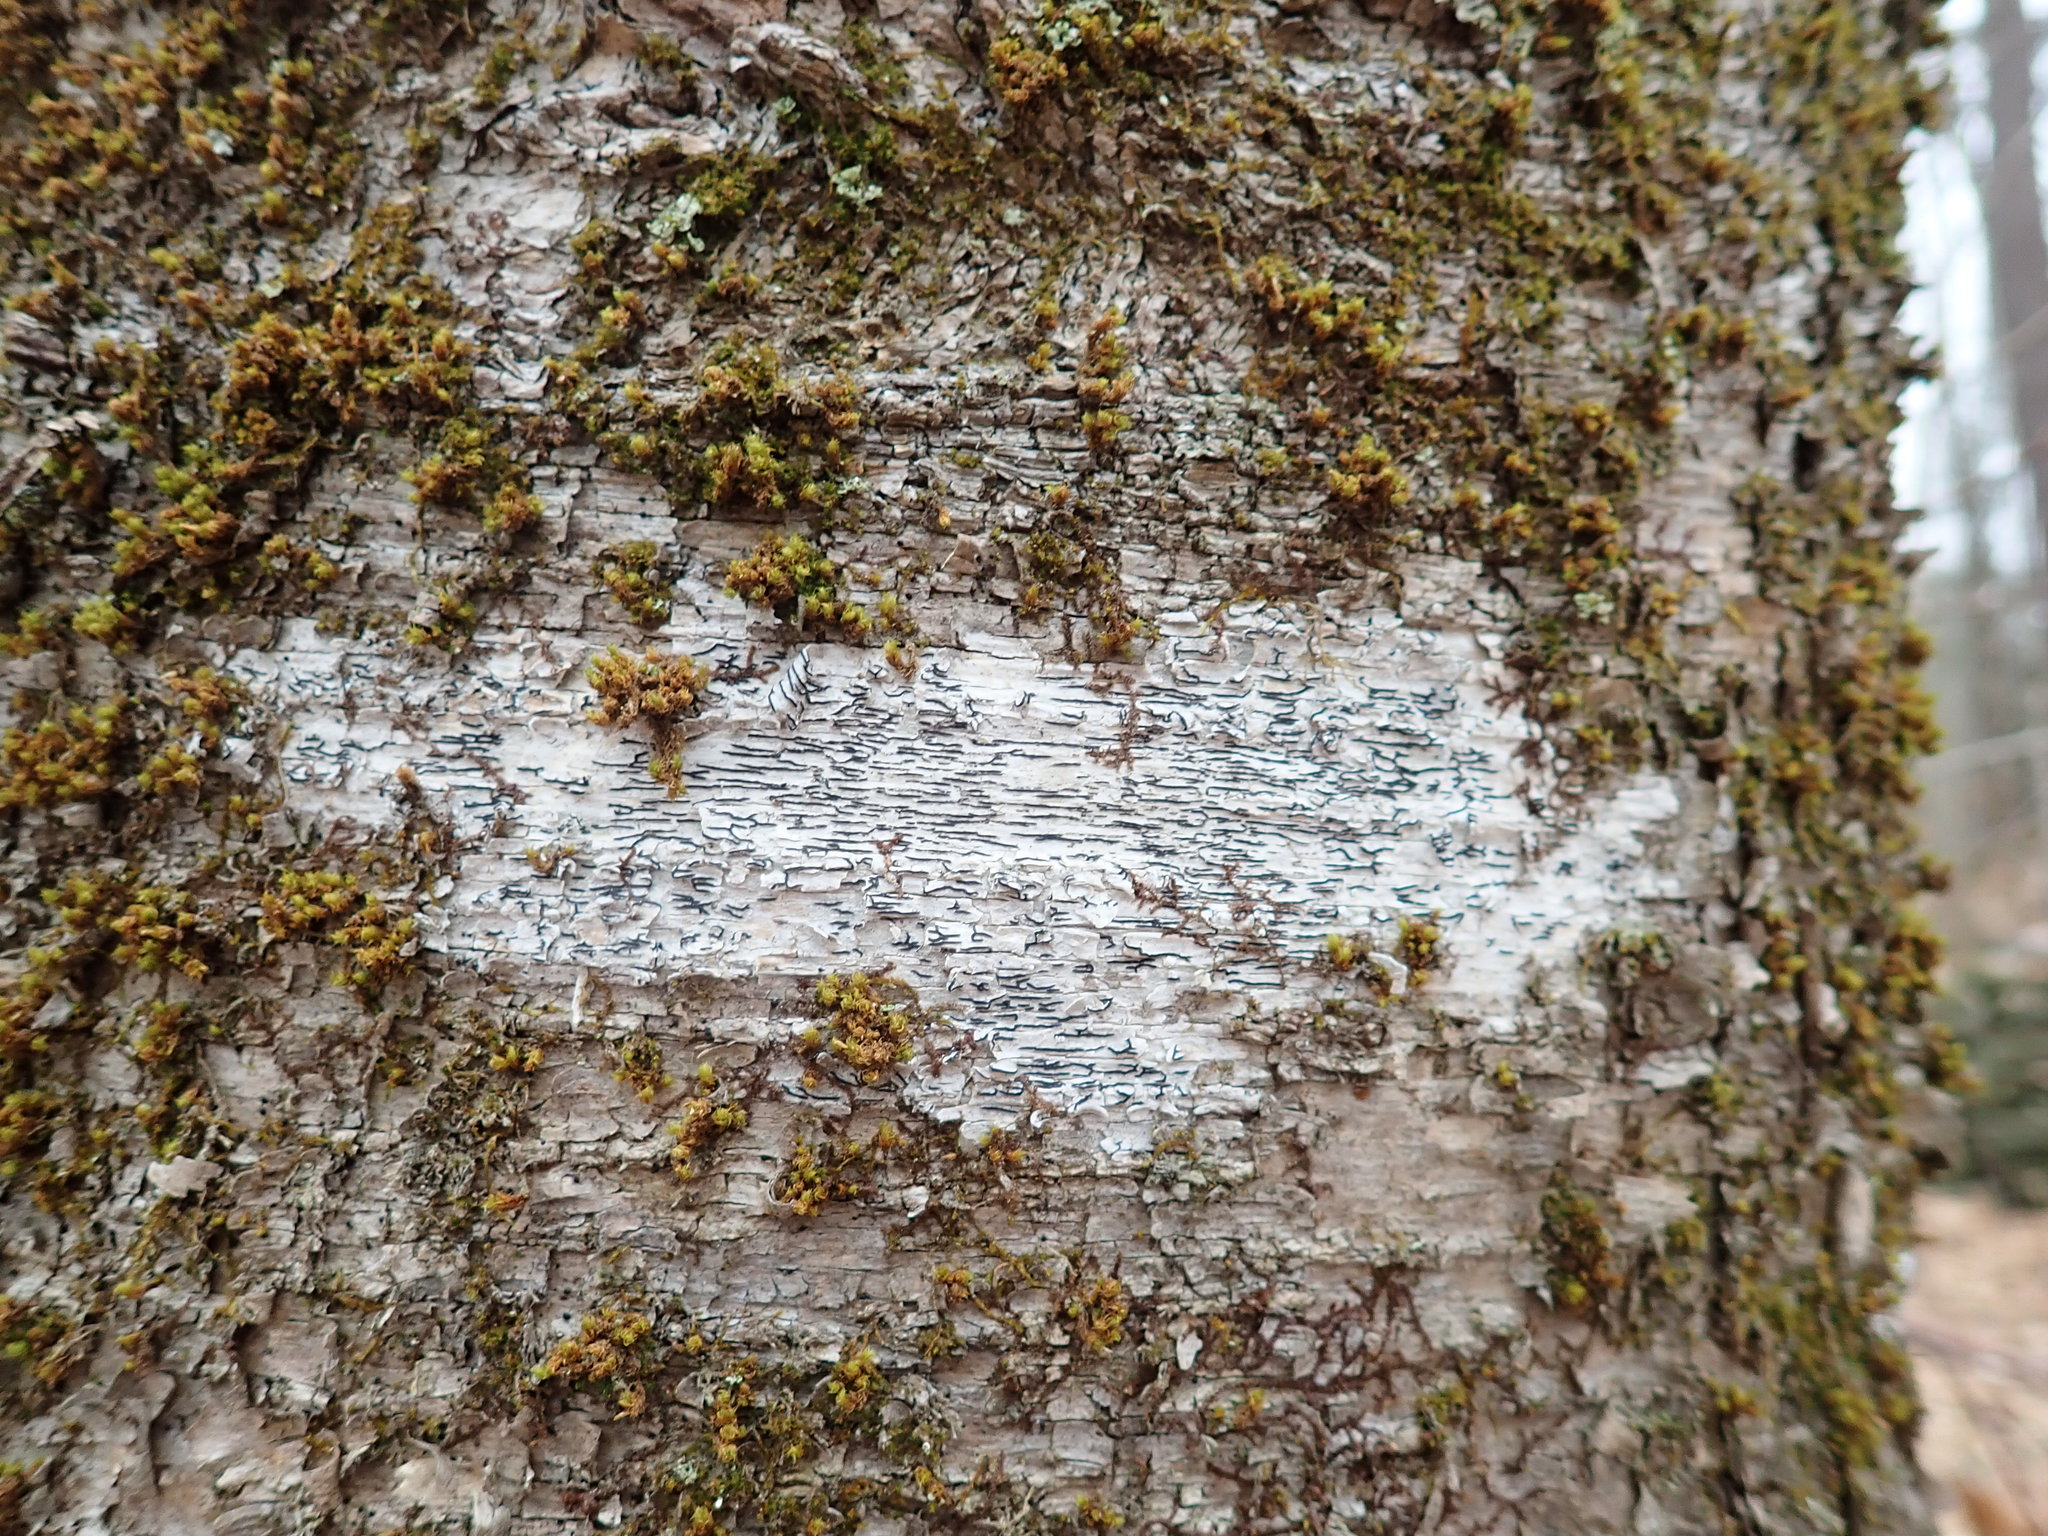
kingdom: Fungi
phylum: Ascomycota
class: Lecanoromycetes
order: Ostropales
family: Graphidaceae
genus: Graphis
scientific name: Graphis scripta
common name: Script lichen
